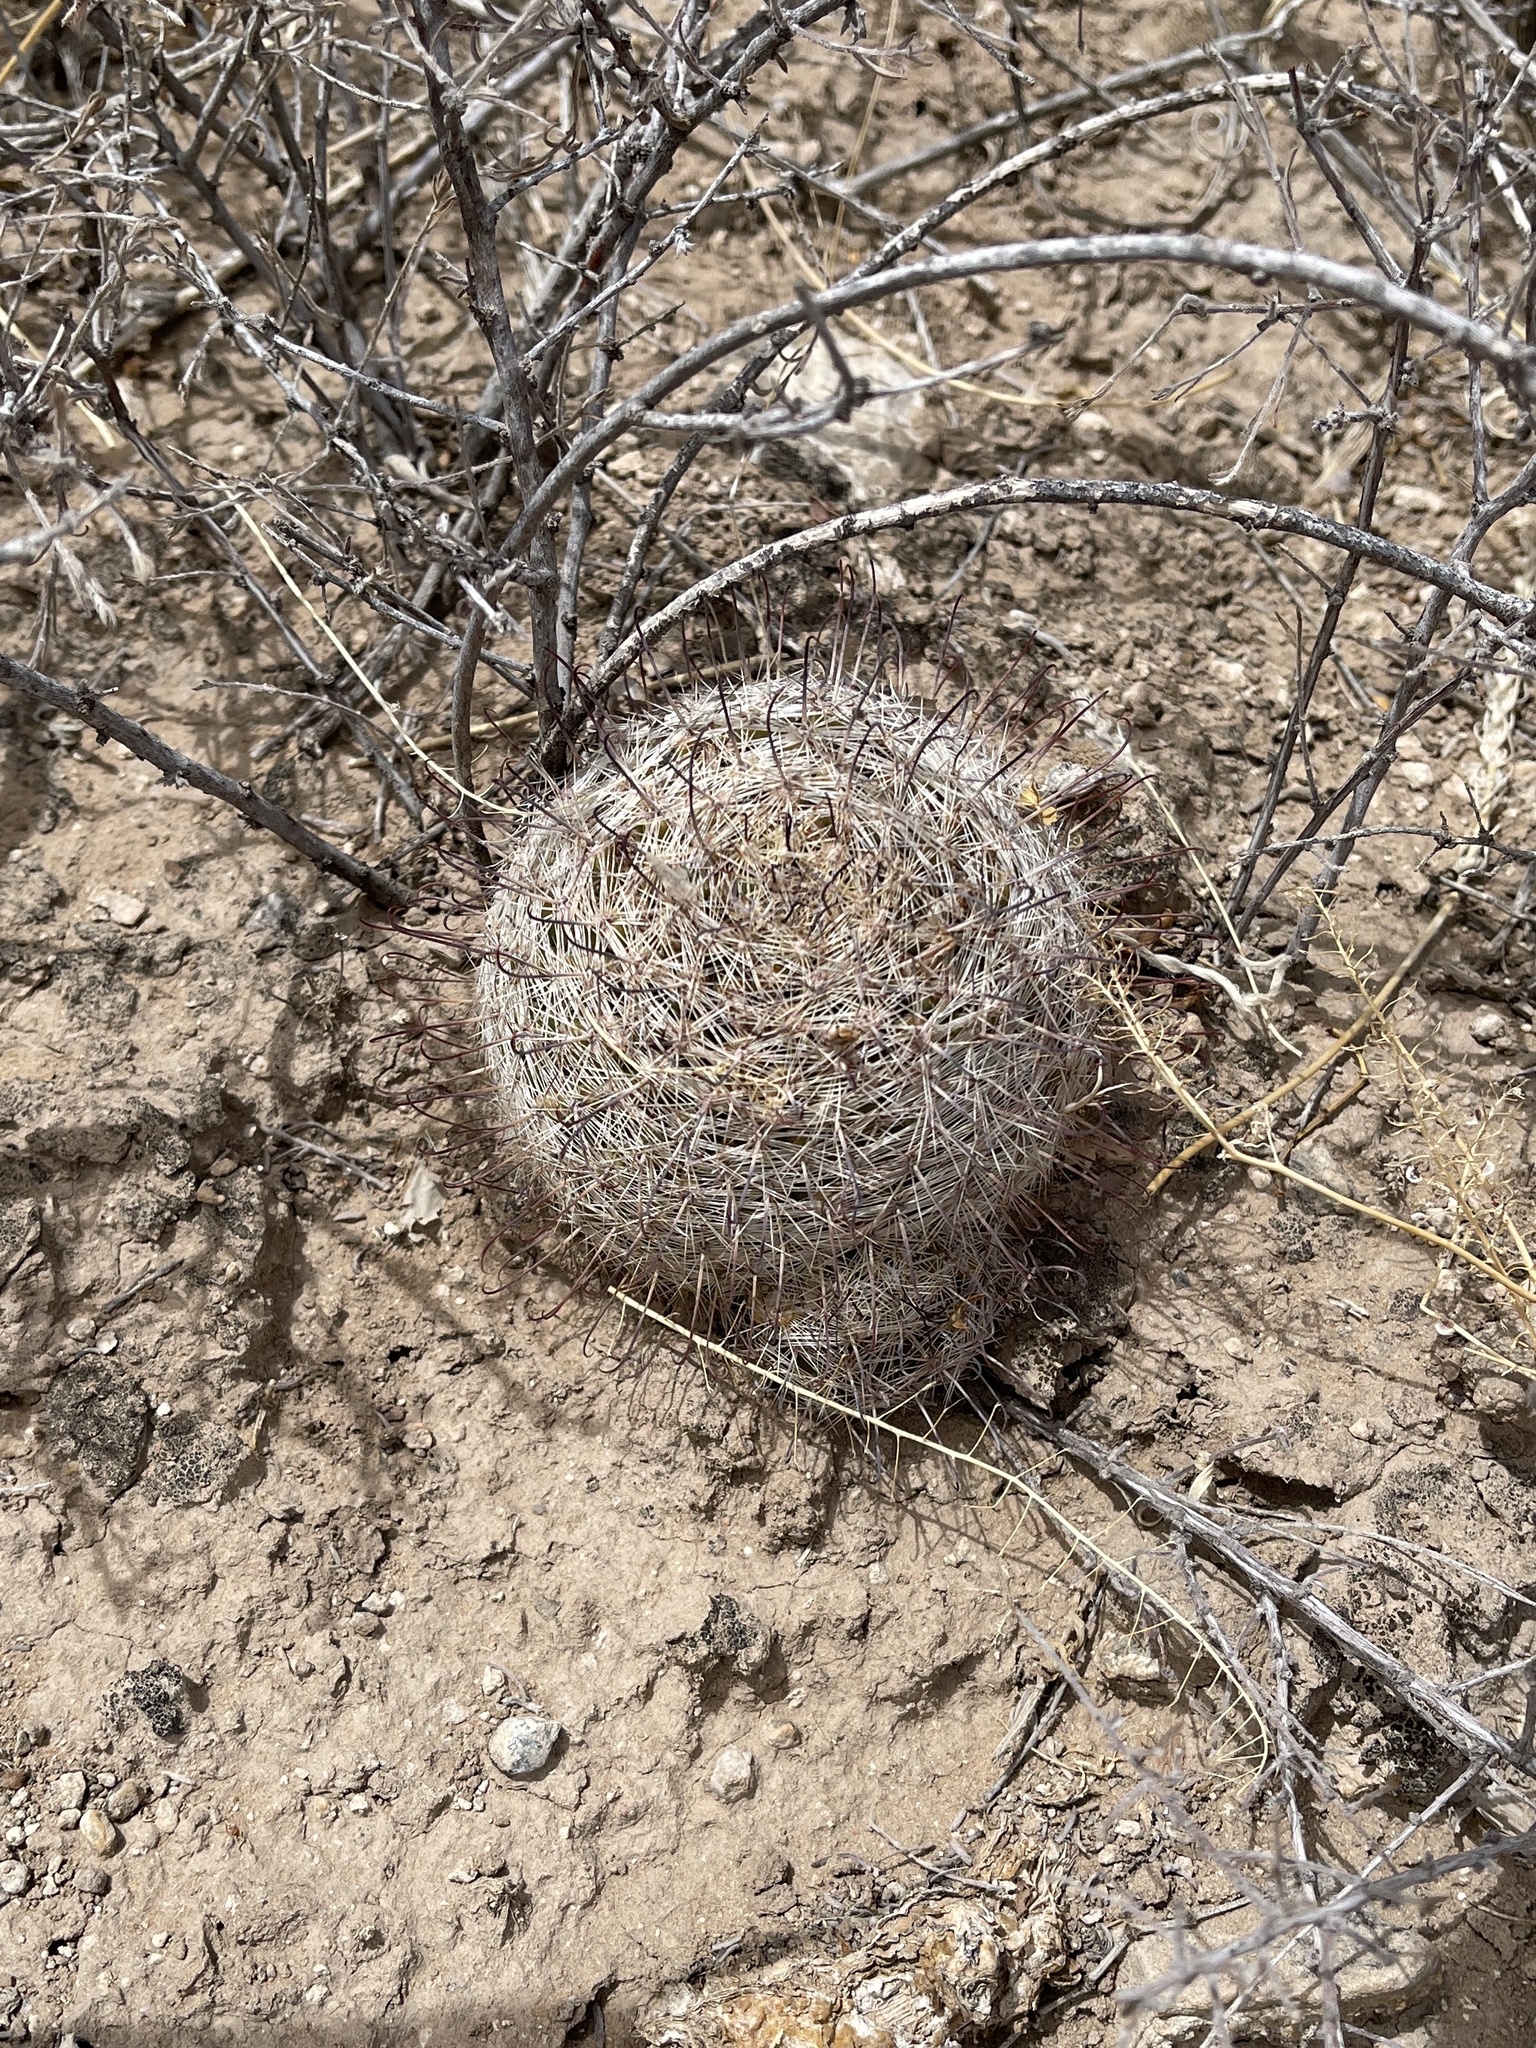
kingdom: Plantae
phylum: Tracheophyta
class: Magnoliopsida
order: Caryophyllales
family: Cactaceae
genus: Cochemiea
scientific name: Cochemiea grahamii
